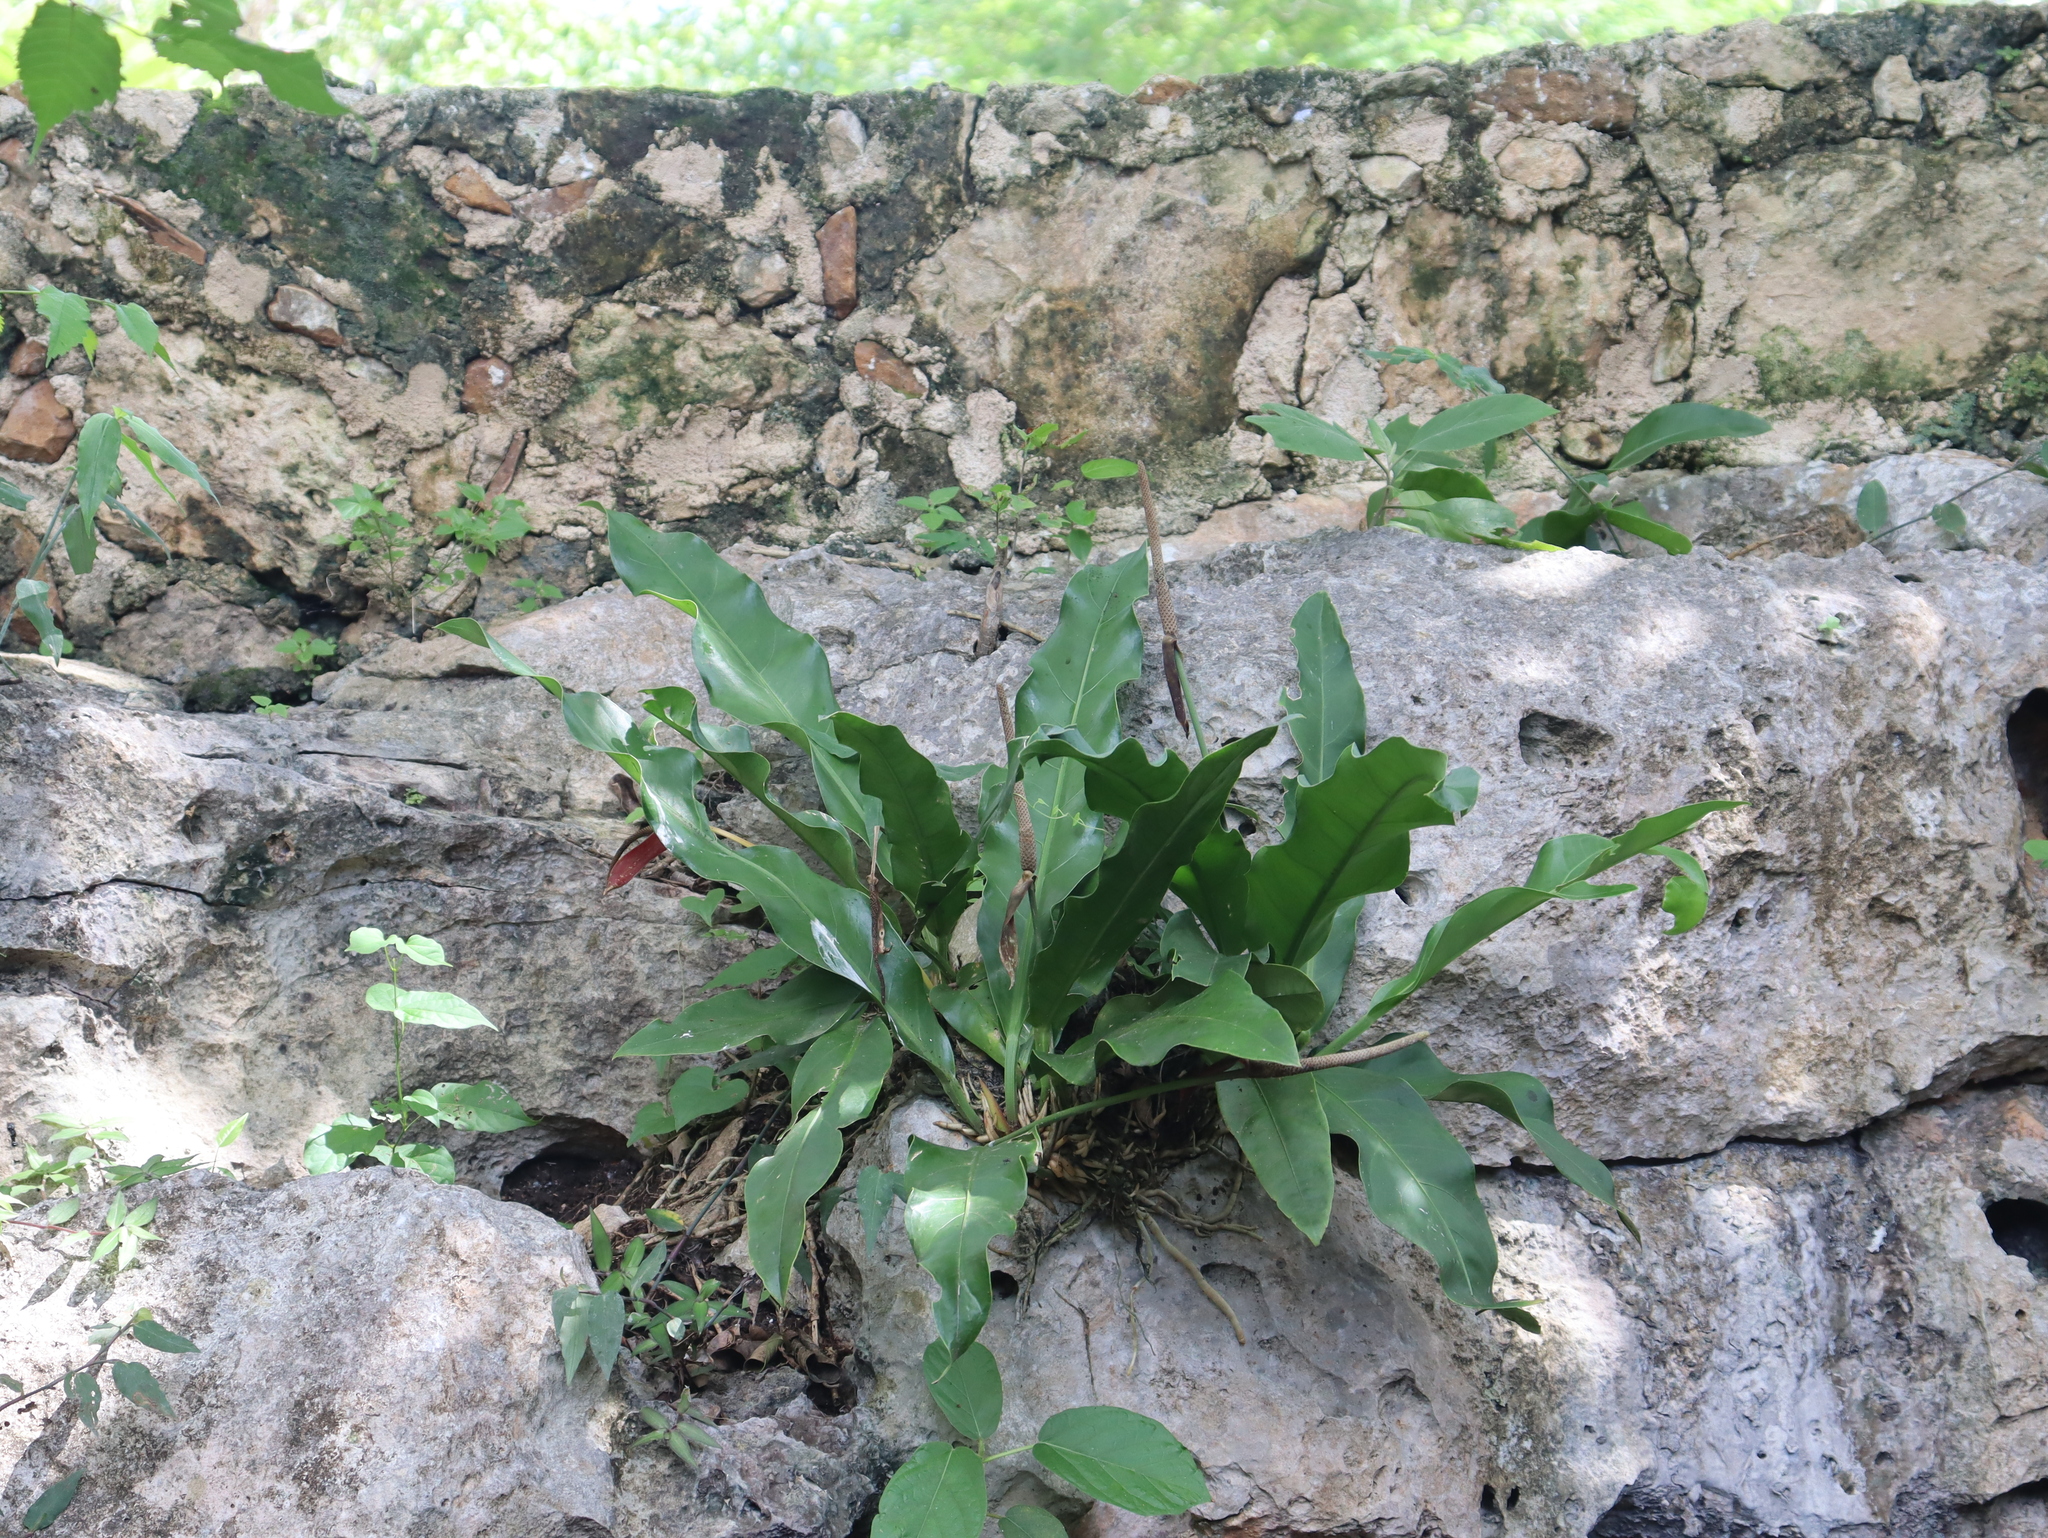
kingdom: Plantae
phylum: Tracheophyta
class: Liliopsida
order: Alismatales
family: Araceae
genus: Anthurium
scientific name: Anthurium schlechtendalii
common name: Laceleaf
